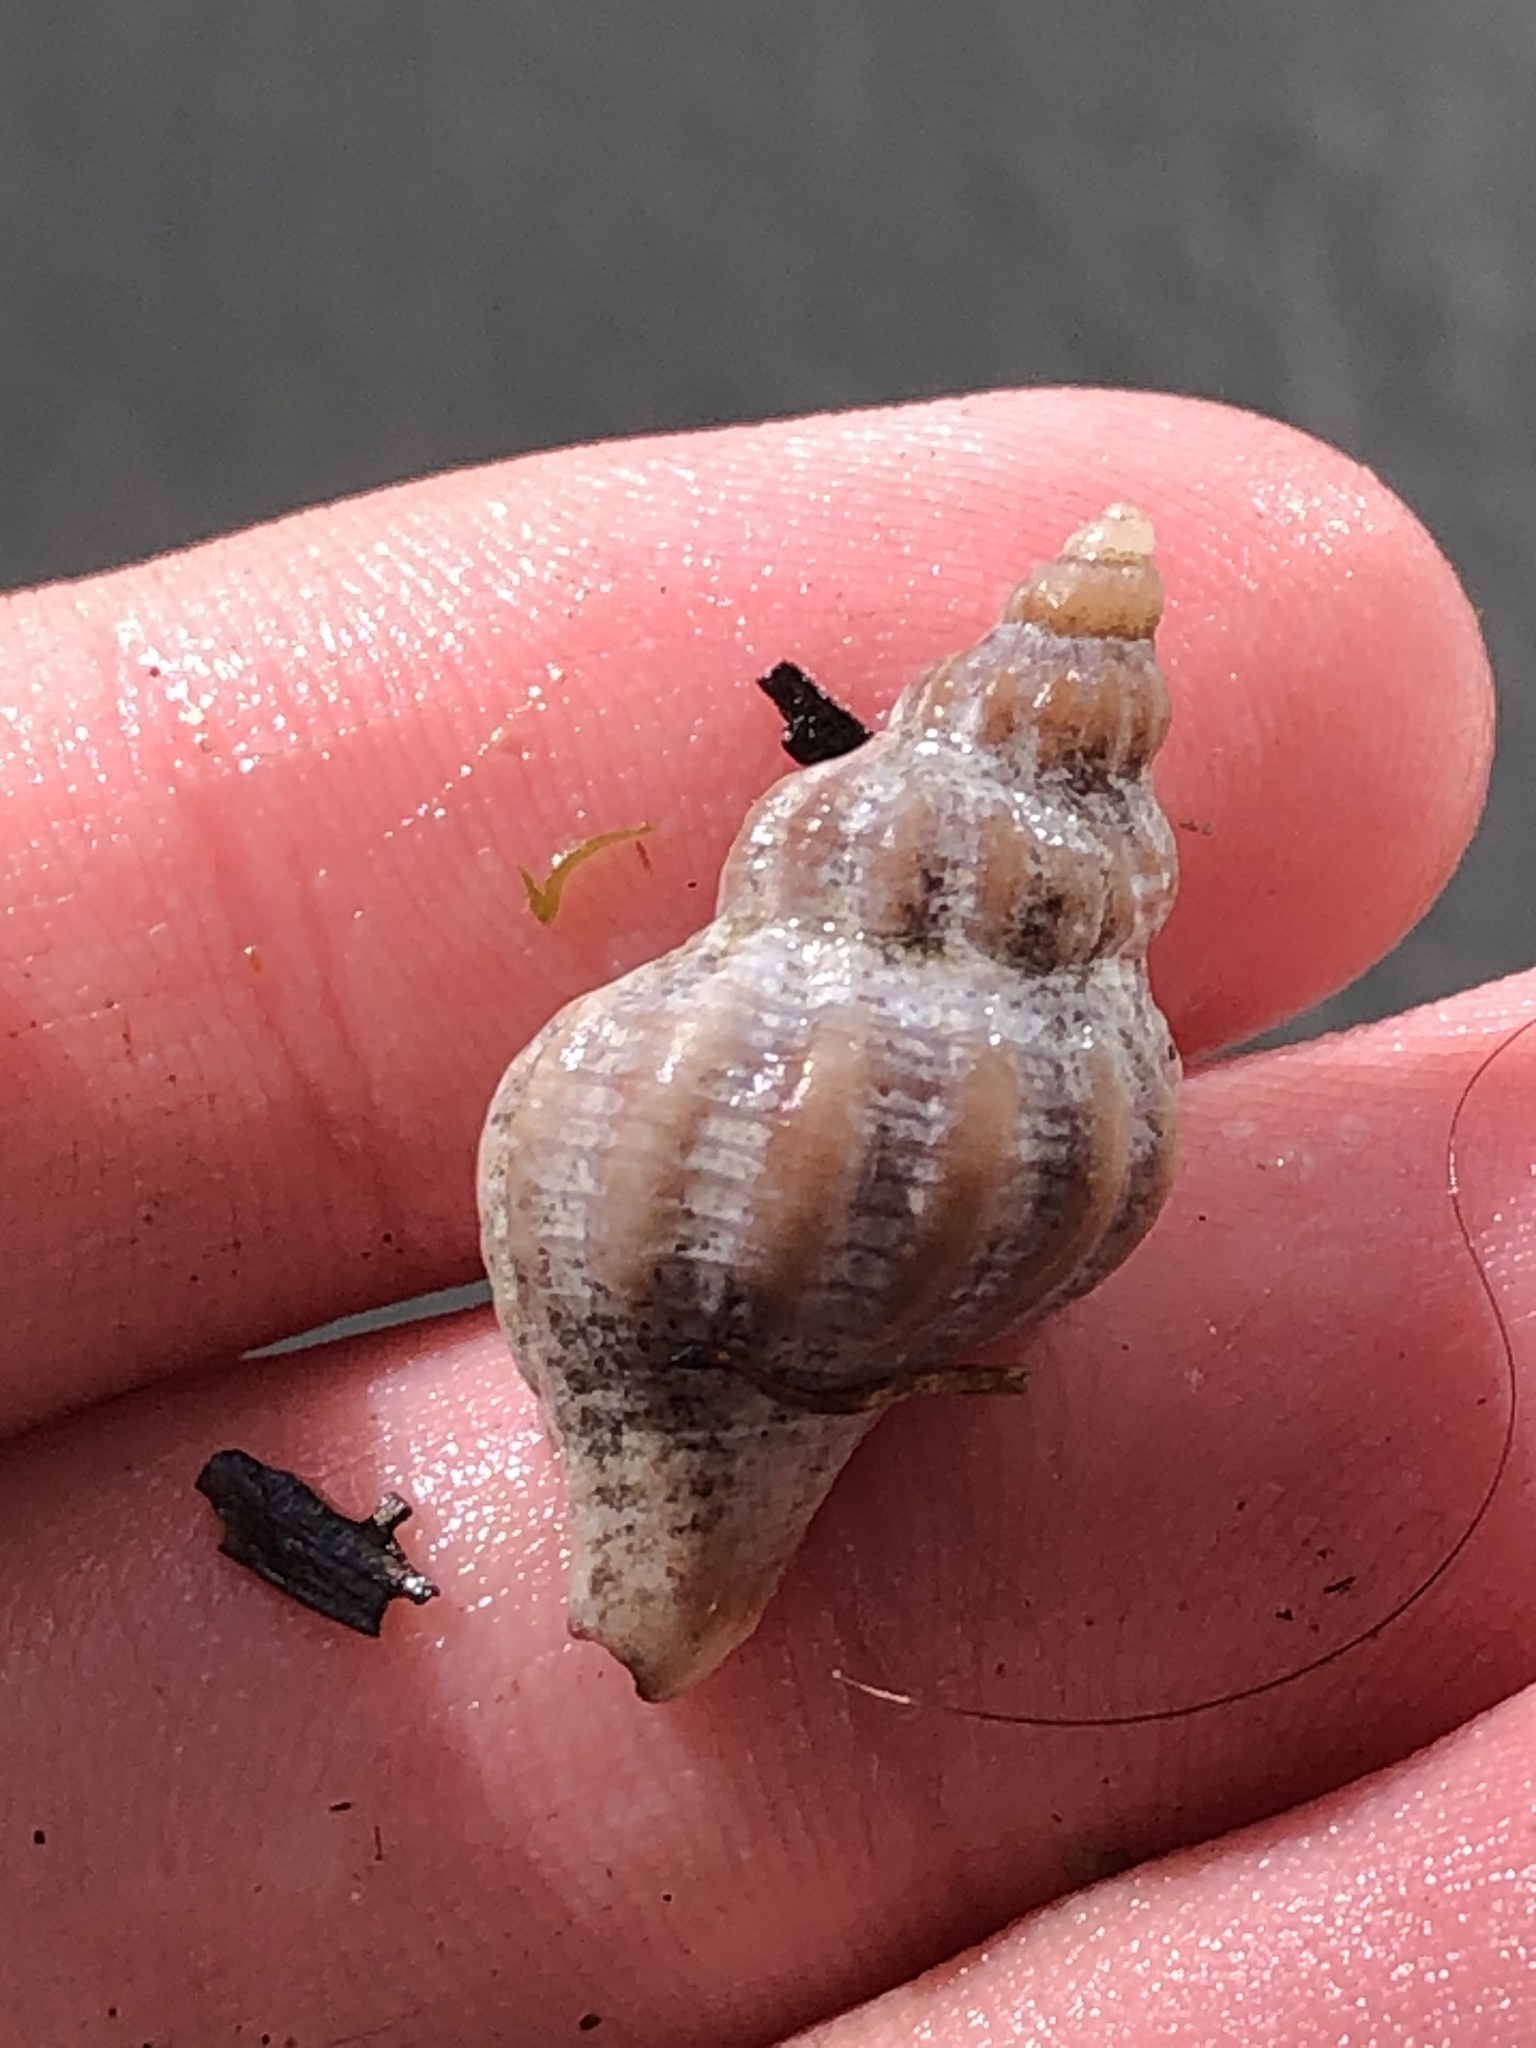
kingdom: Animalia
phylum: Mollusca
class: Gastropoda
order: Neogastropoda
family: Muricidae
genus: Urosalpinx
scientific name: Urosalpinx cinerea
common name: American sting winkle
